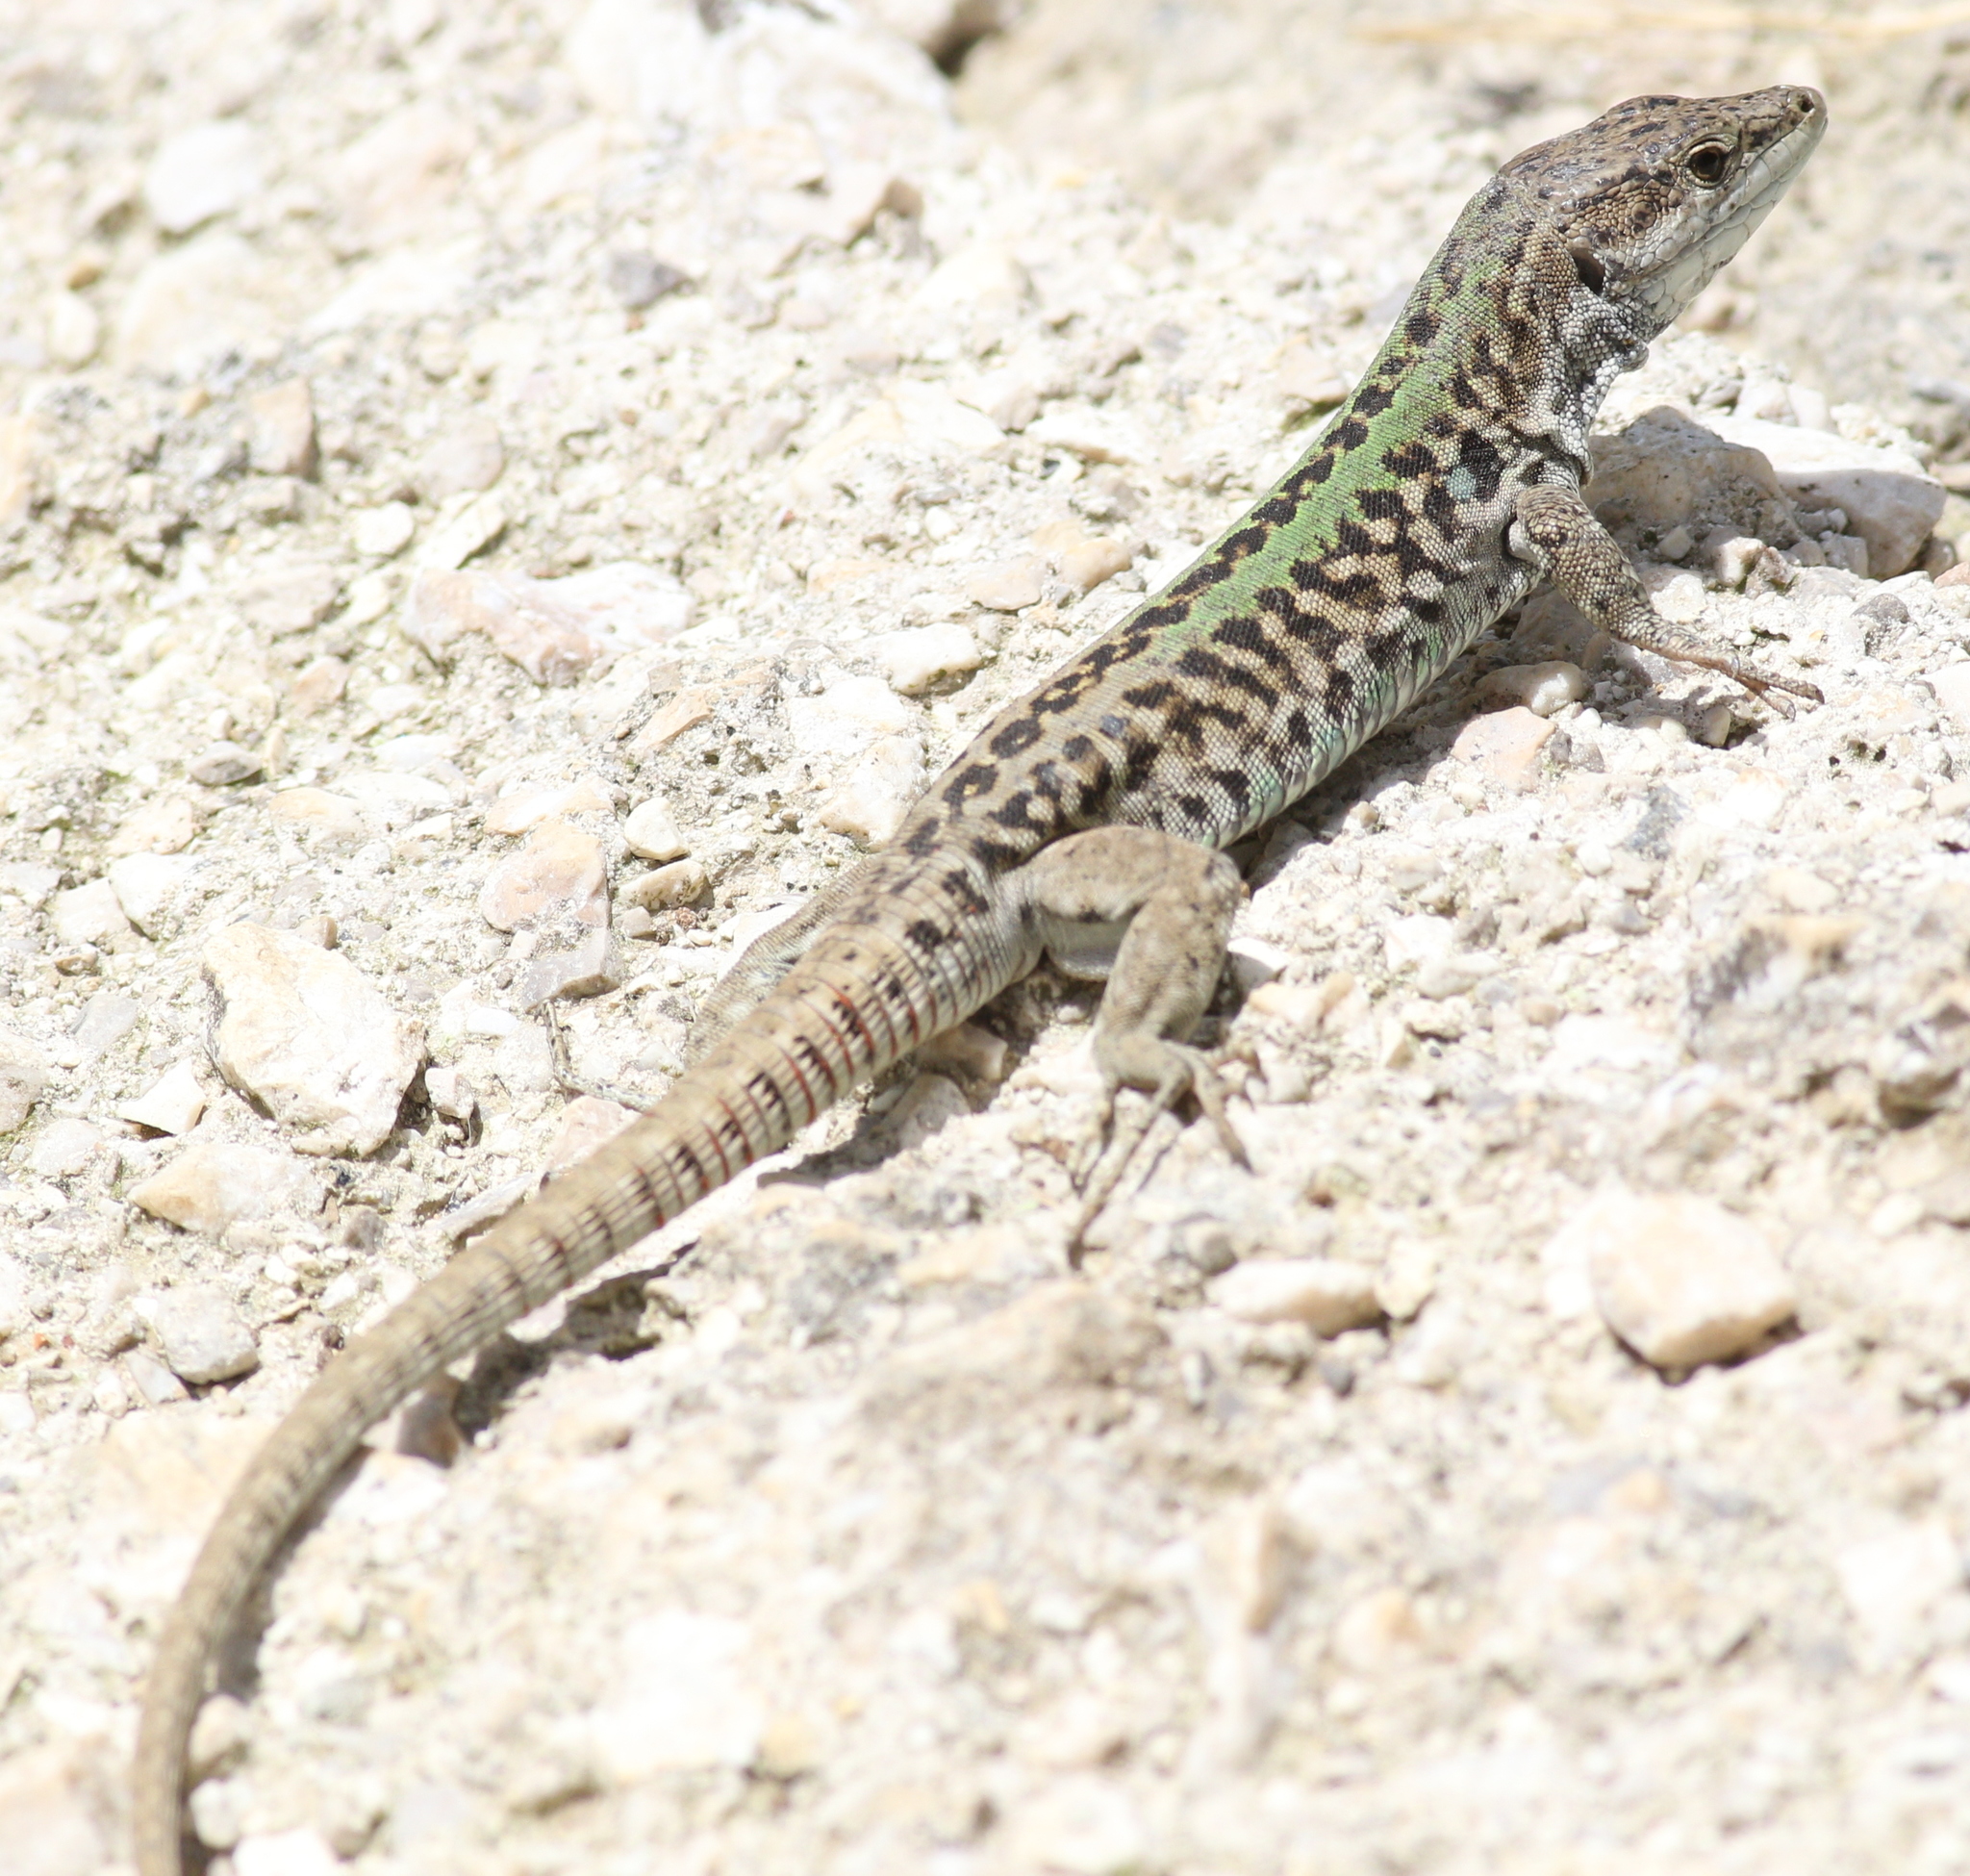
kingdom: Animalia
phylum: Chordata
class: Squamata
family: Lacertidae
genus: Podarcis
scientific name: Podarcis siculus
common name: Italian wall lizard
